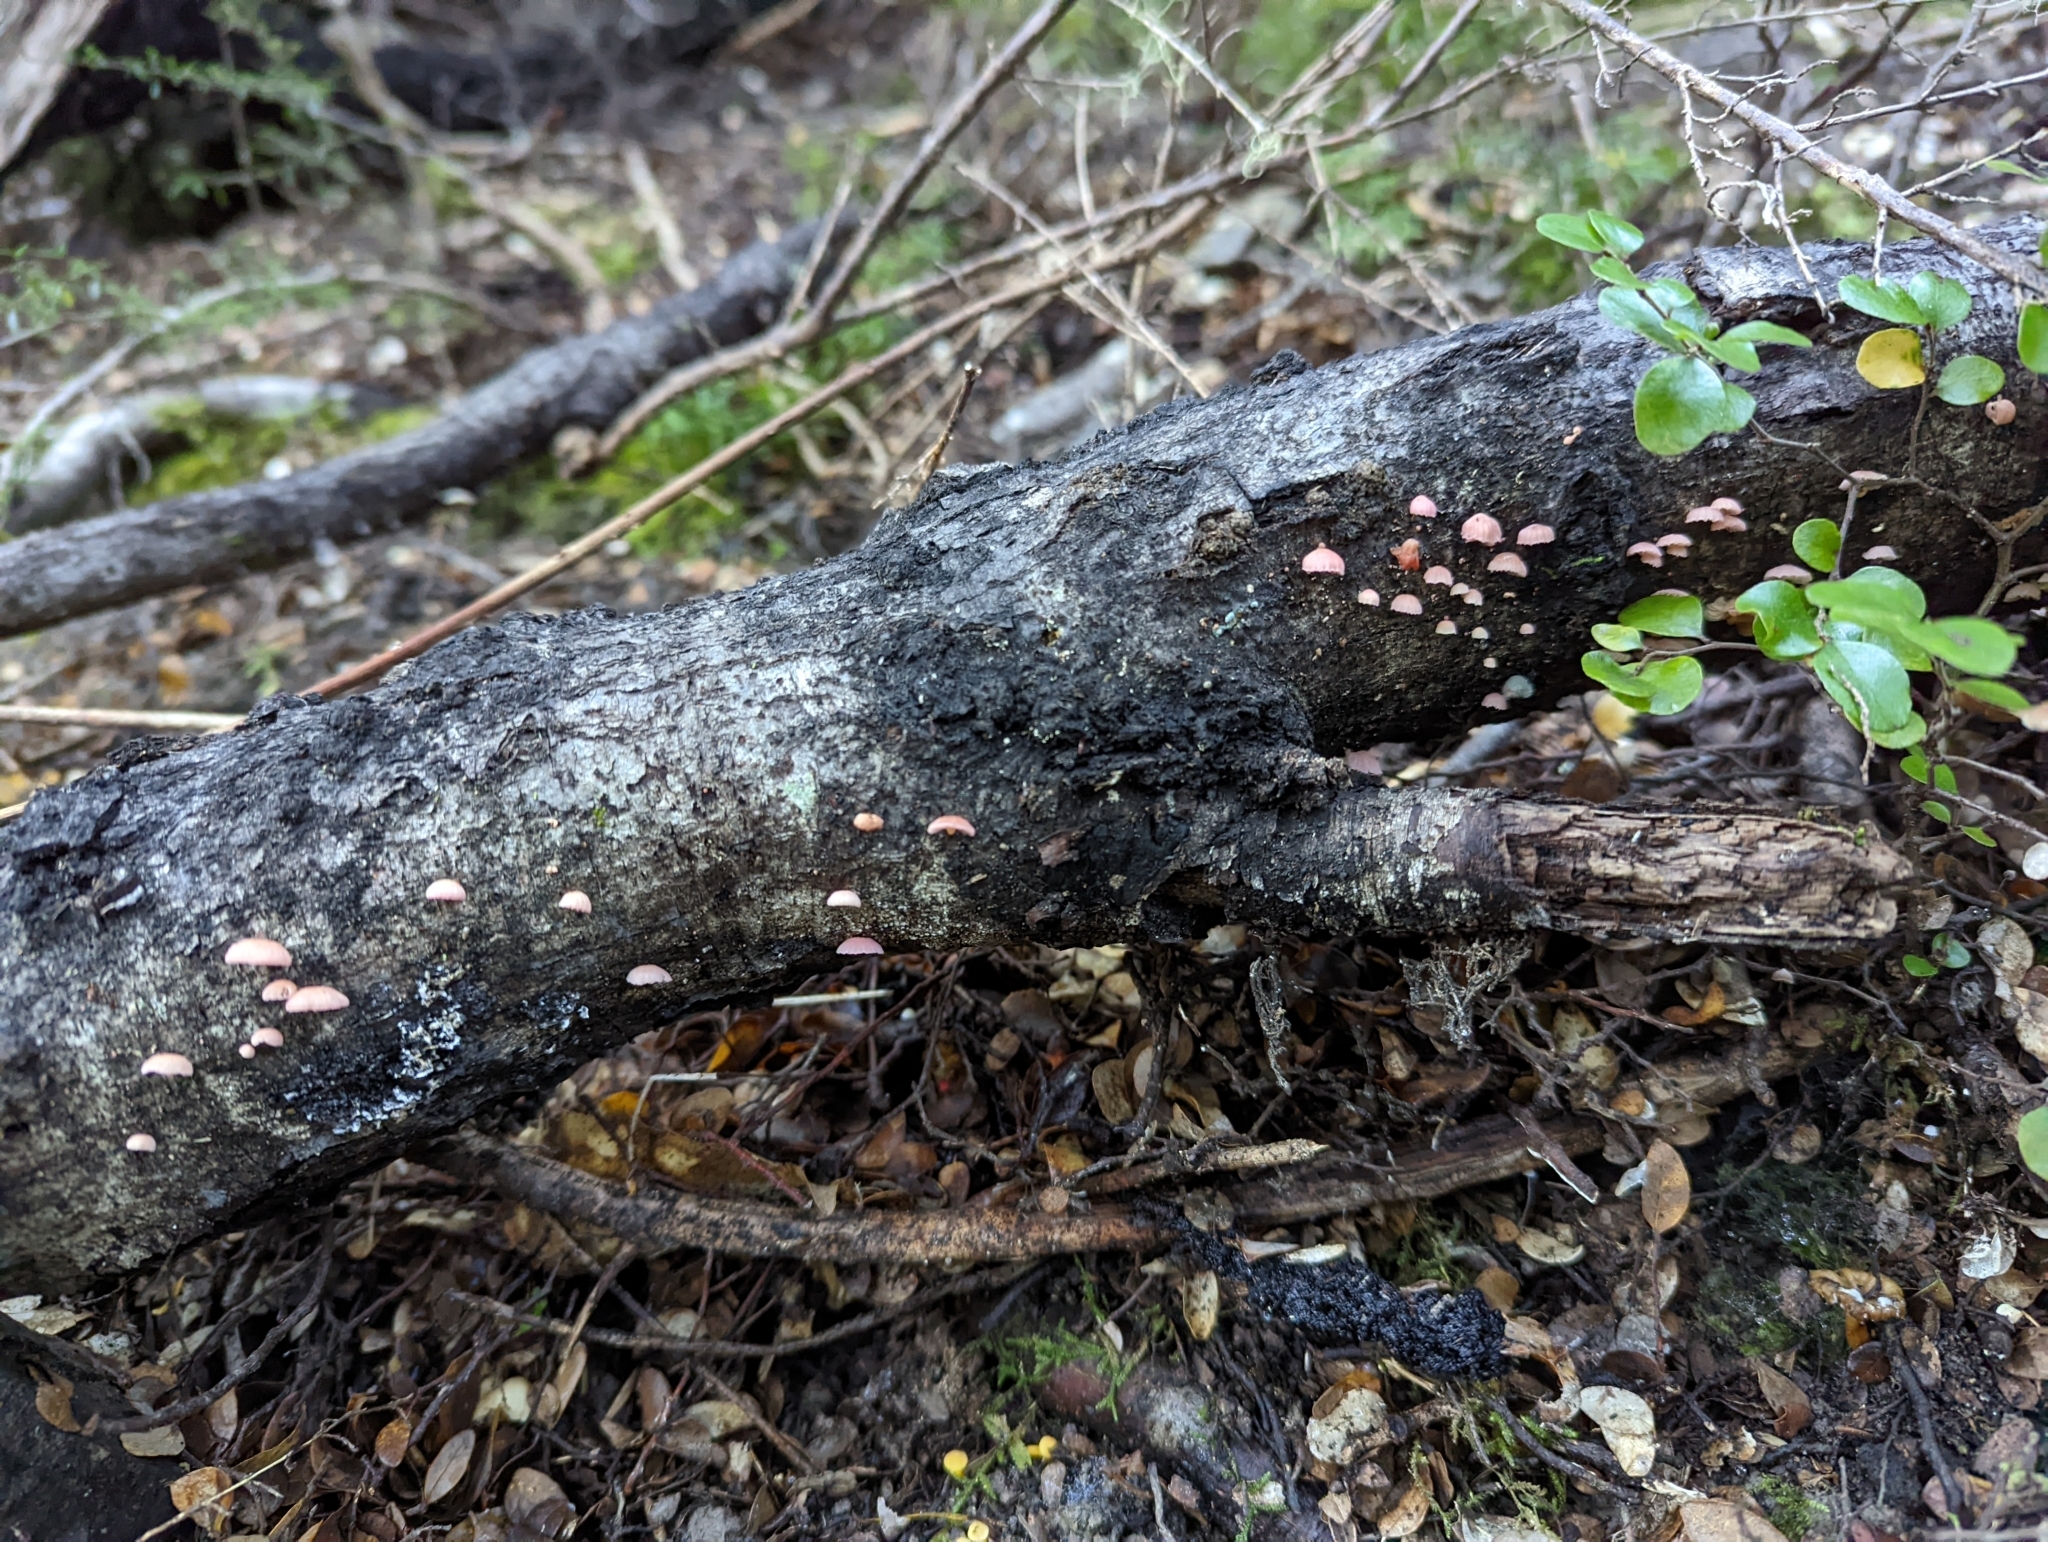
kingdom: Fungi
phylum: Basidiomycota
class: Agaricomycetes
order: Agaricales
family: Mycenaceae
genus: Mycena
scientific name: Mycena roseoflava
